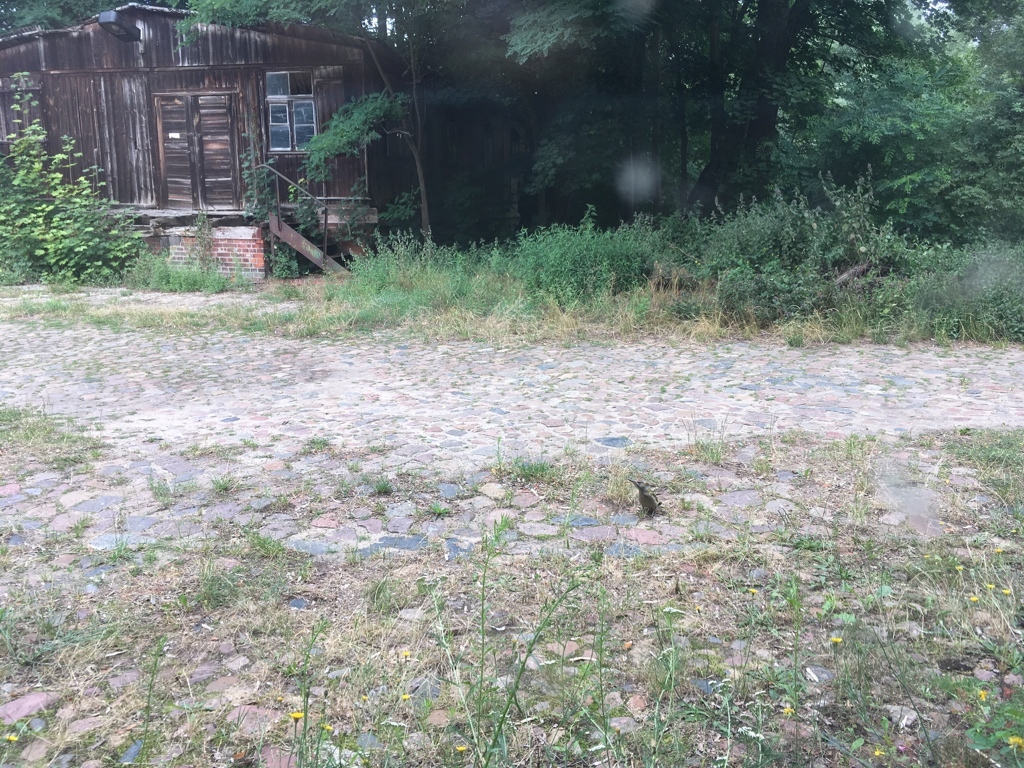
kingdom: Animalia
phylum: Chordata
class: Aves
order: Piciformes
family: Picidae
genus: Picus
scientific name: Picus viridis
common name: European green woodpecker
